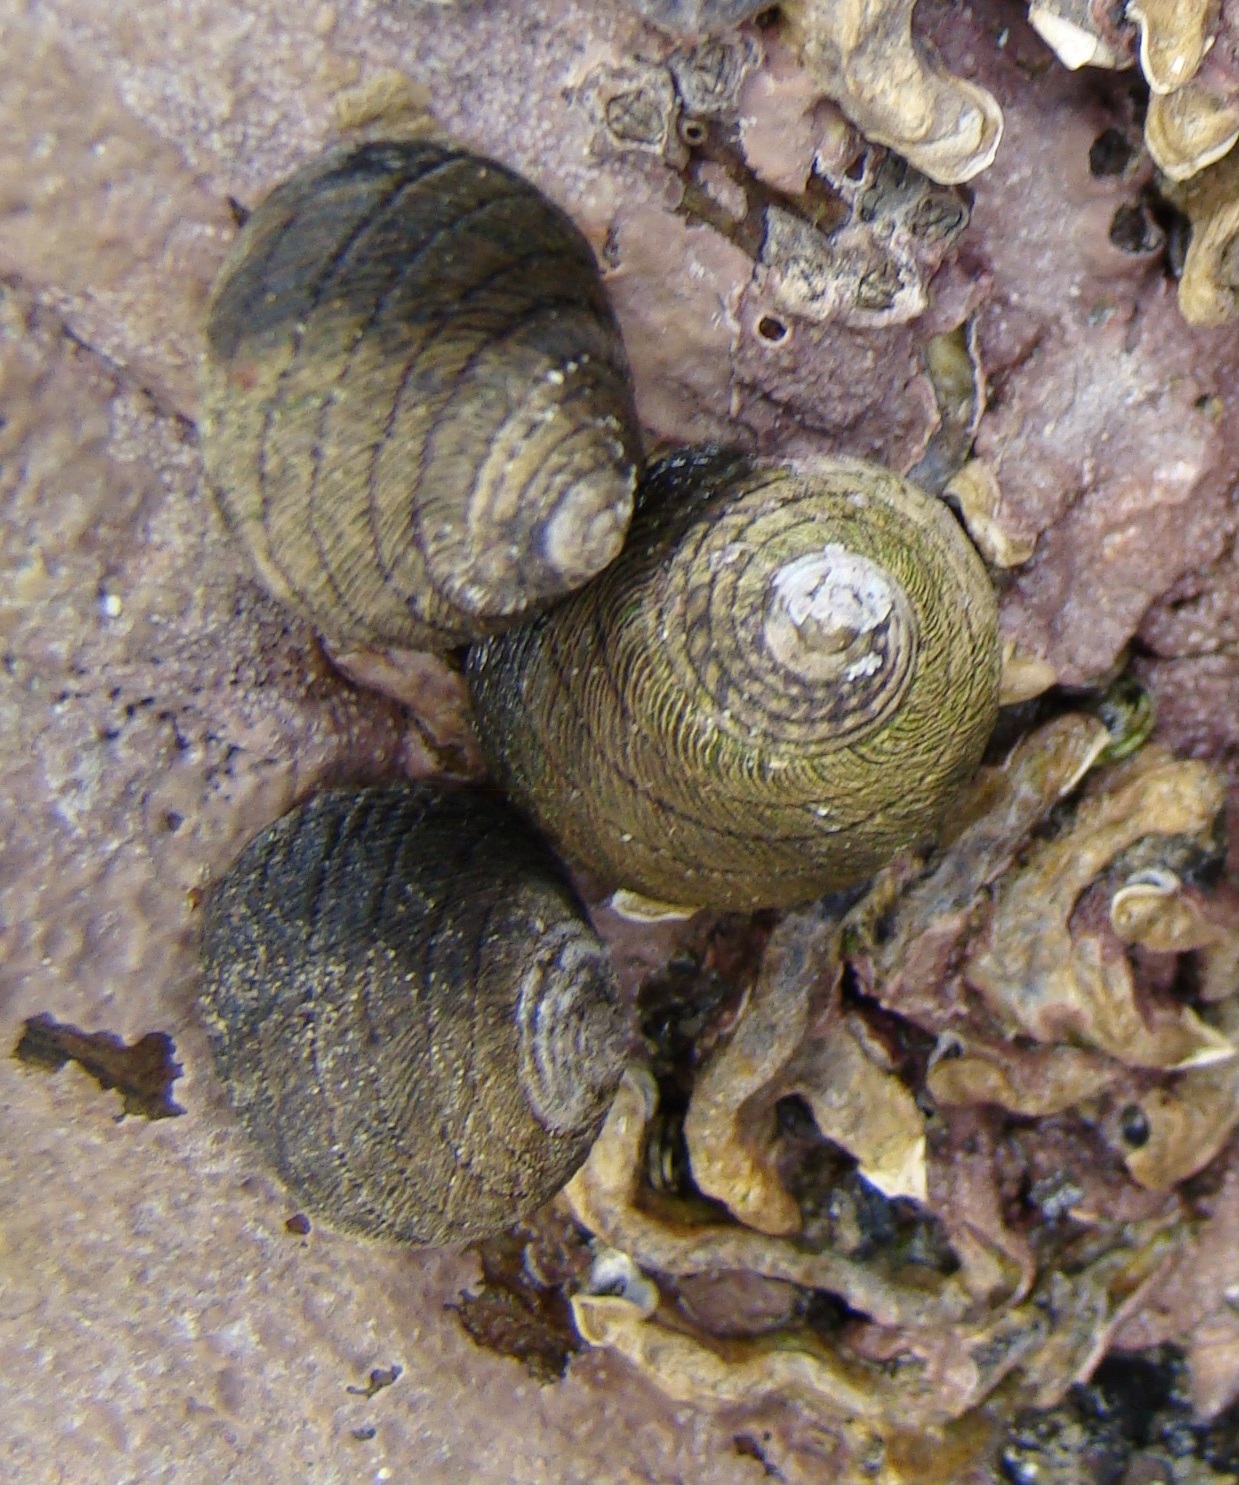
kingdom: Animalia
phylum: Mollusca
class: Gastropoda
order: Trochida
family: Trochidae
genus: Diloma
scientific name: Diloma aethiops
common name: Scorched monodont
